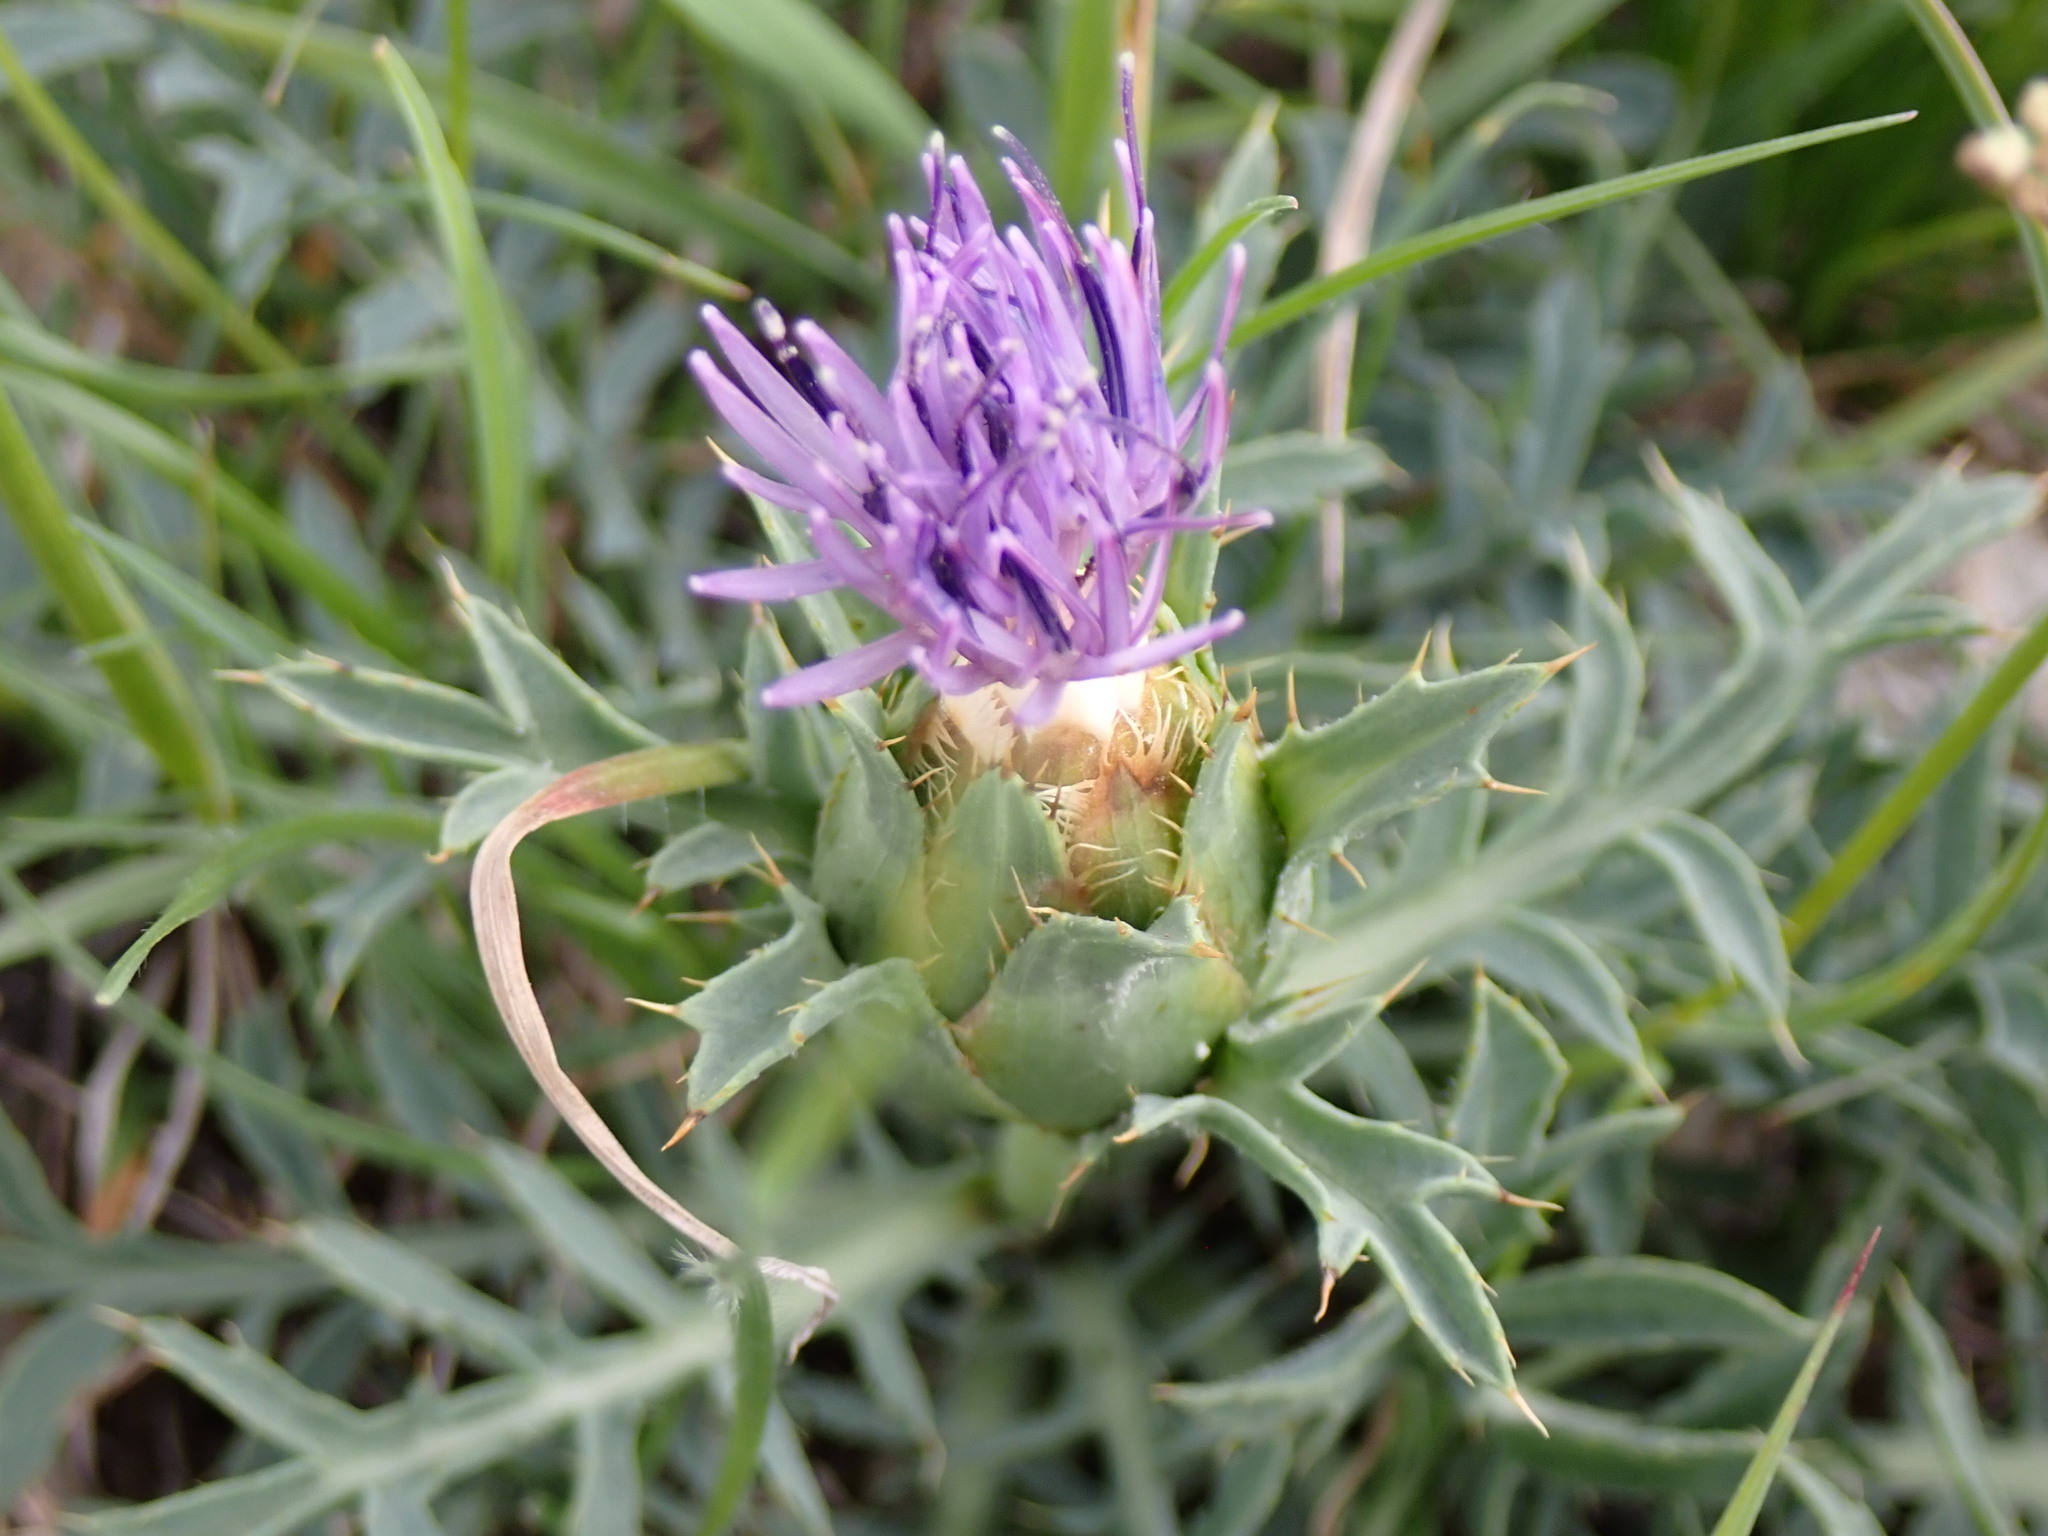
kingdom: Plantae
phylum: Tracheophyta
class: Magnoliopsida
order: Asterales
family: Asteraceae
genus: Carduncellus
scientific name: Carduncellus monspelliensium
